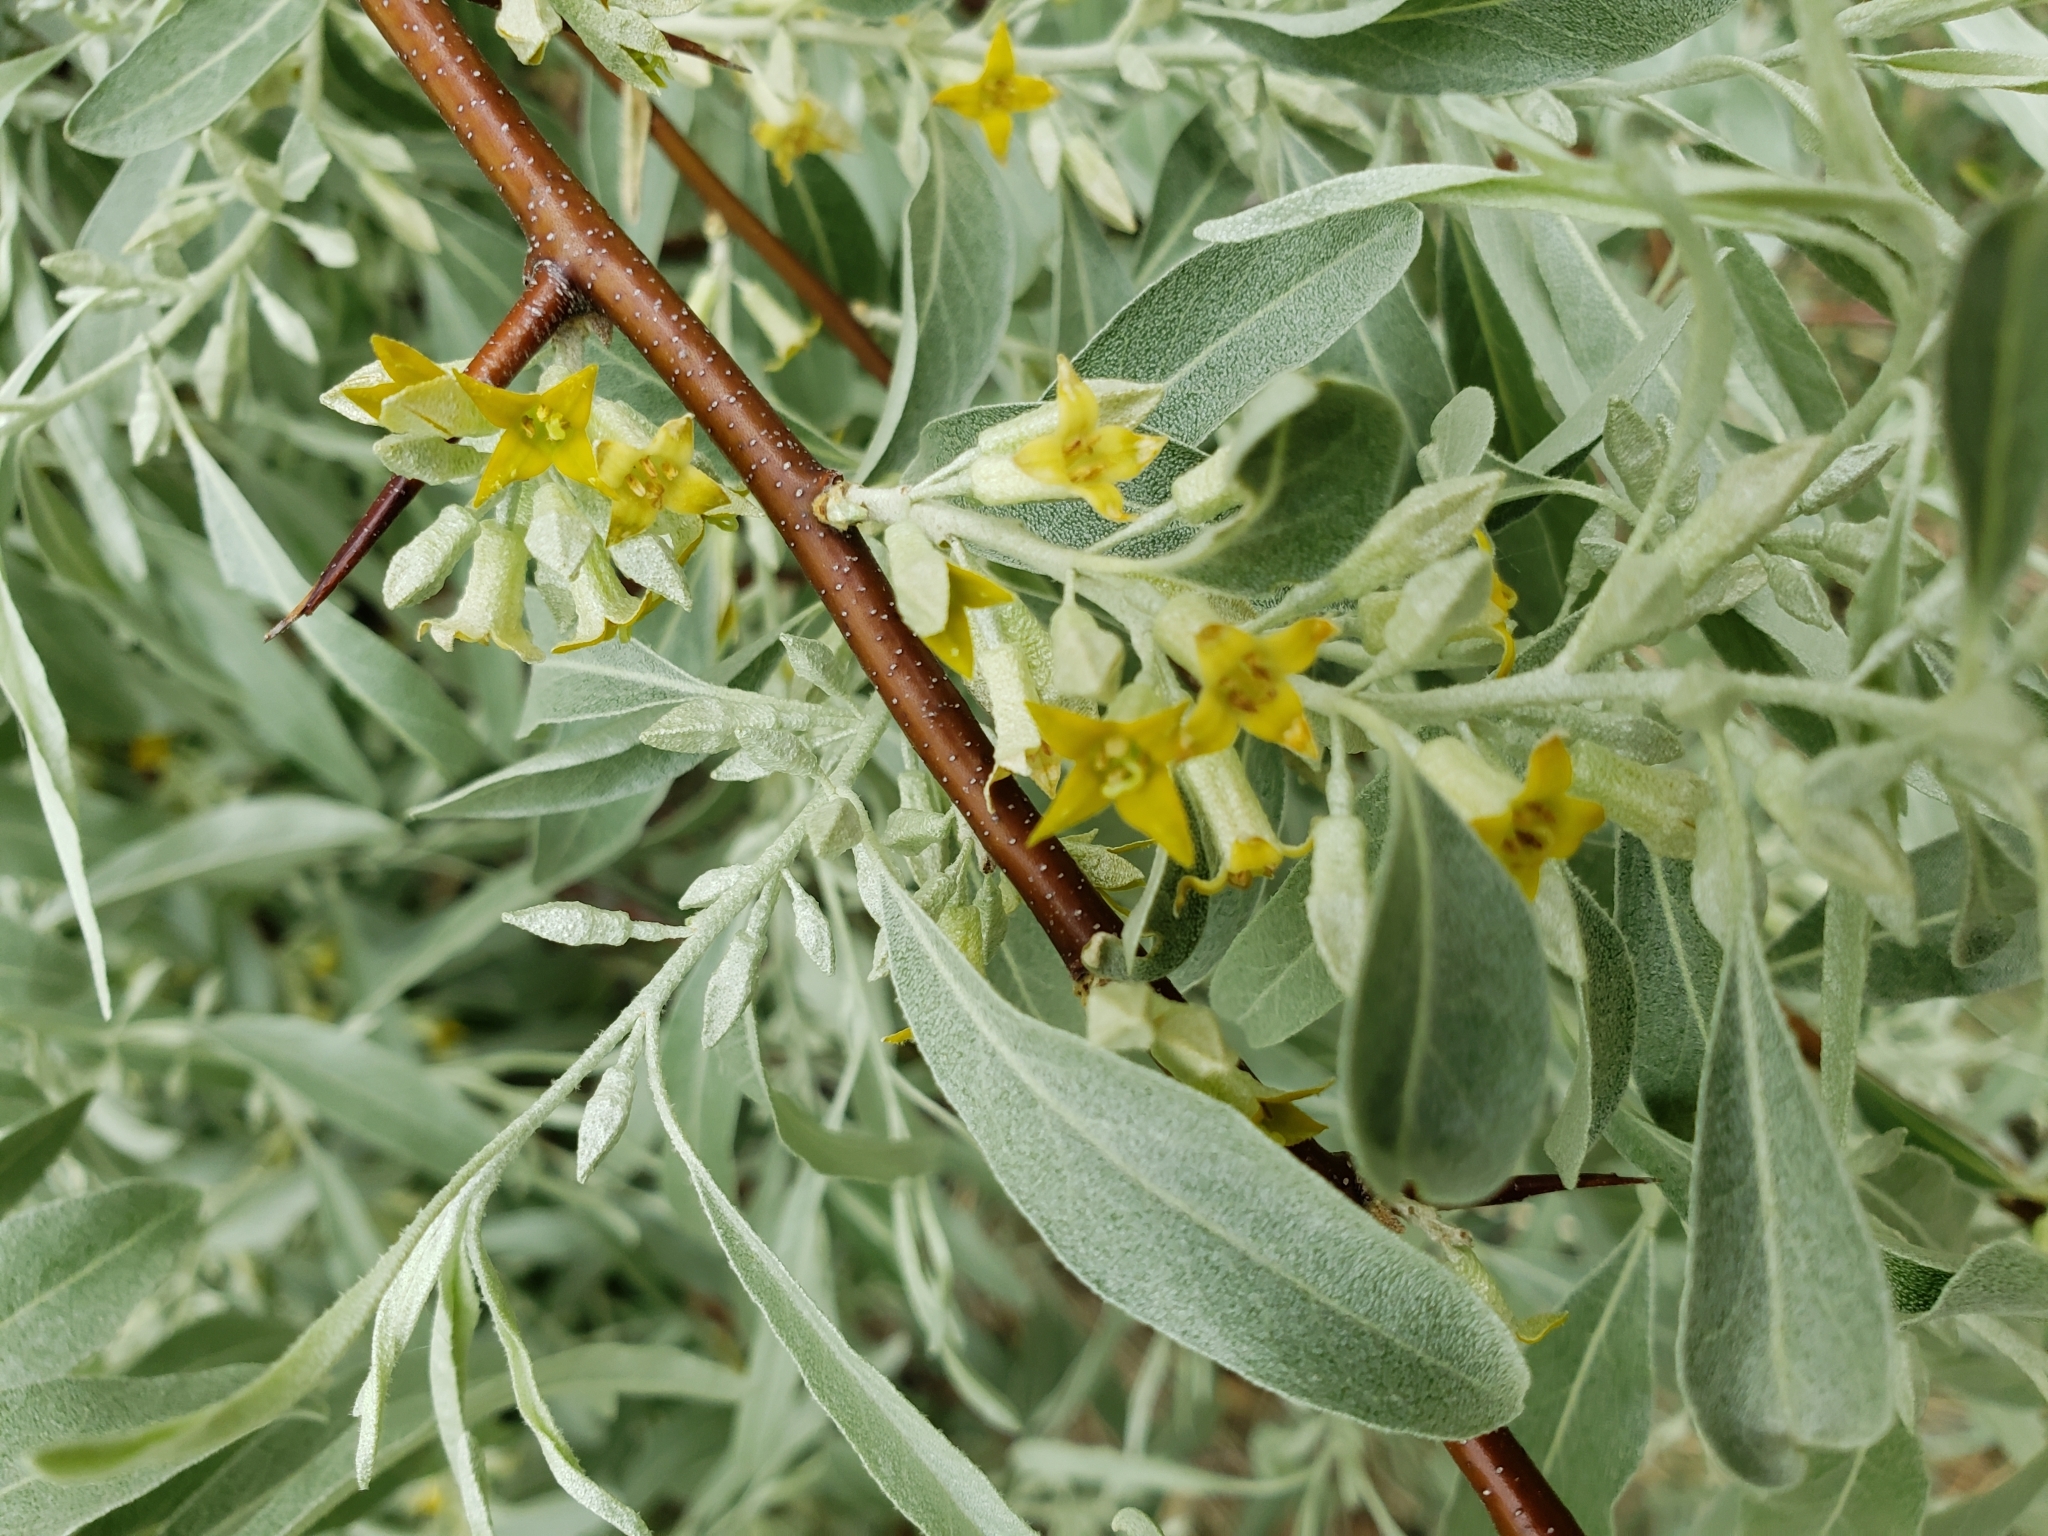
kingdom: Plantae
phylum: Tracheophyta
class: Magnoliopsida
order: Rosales
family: Elaeagnaceae
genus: Elaeagnus
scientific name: Elaeagnus angustifolia
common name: Russian olive
